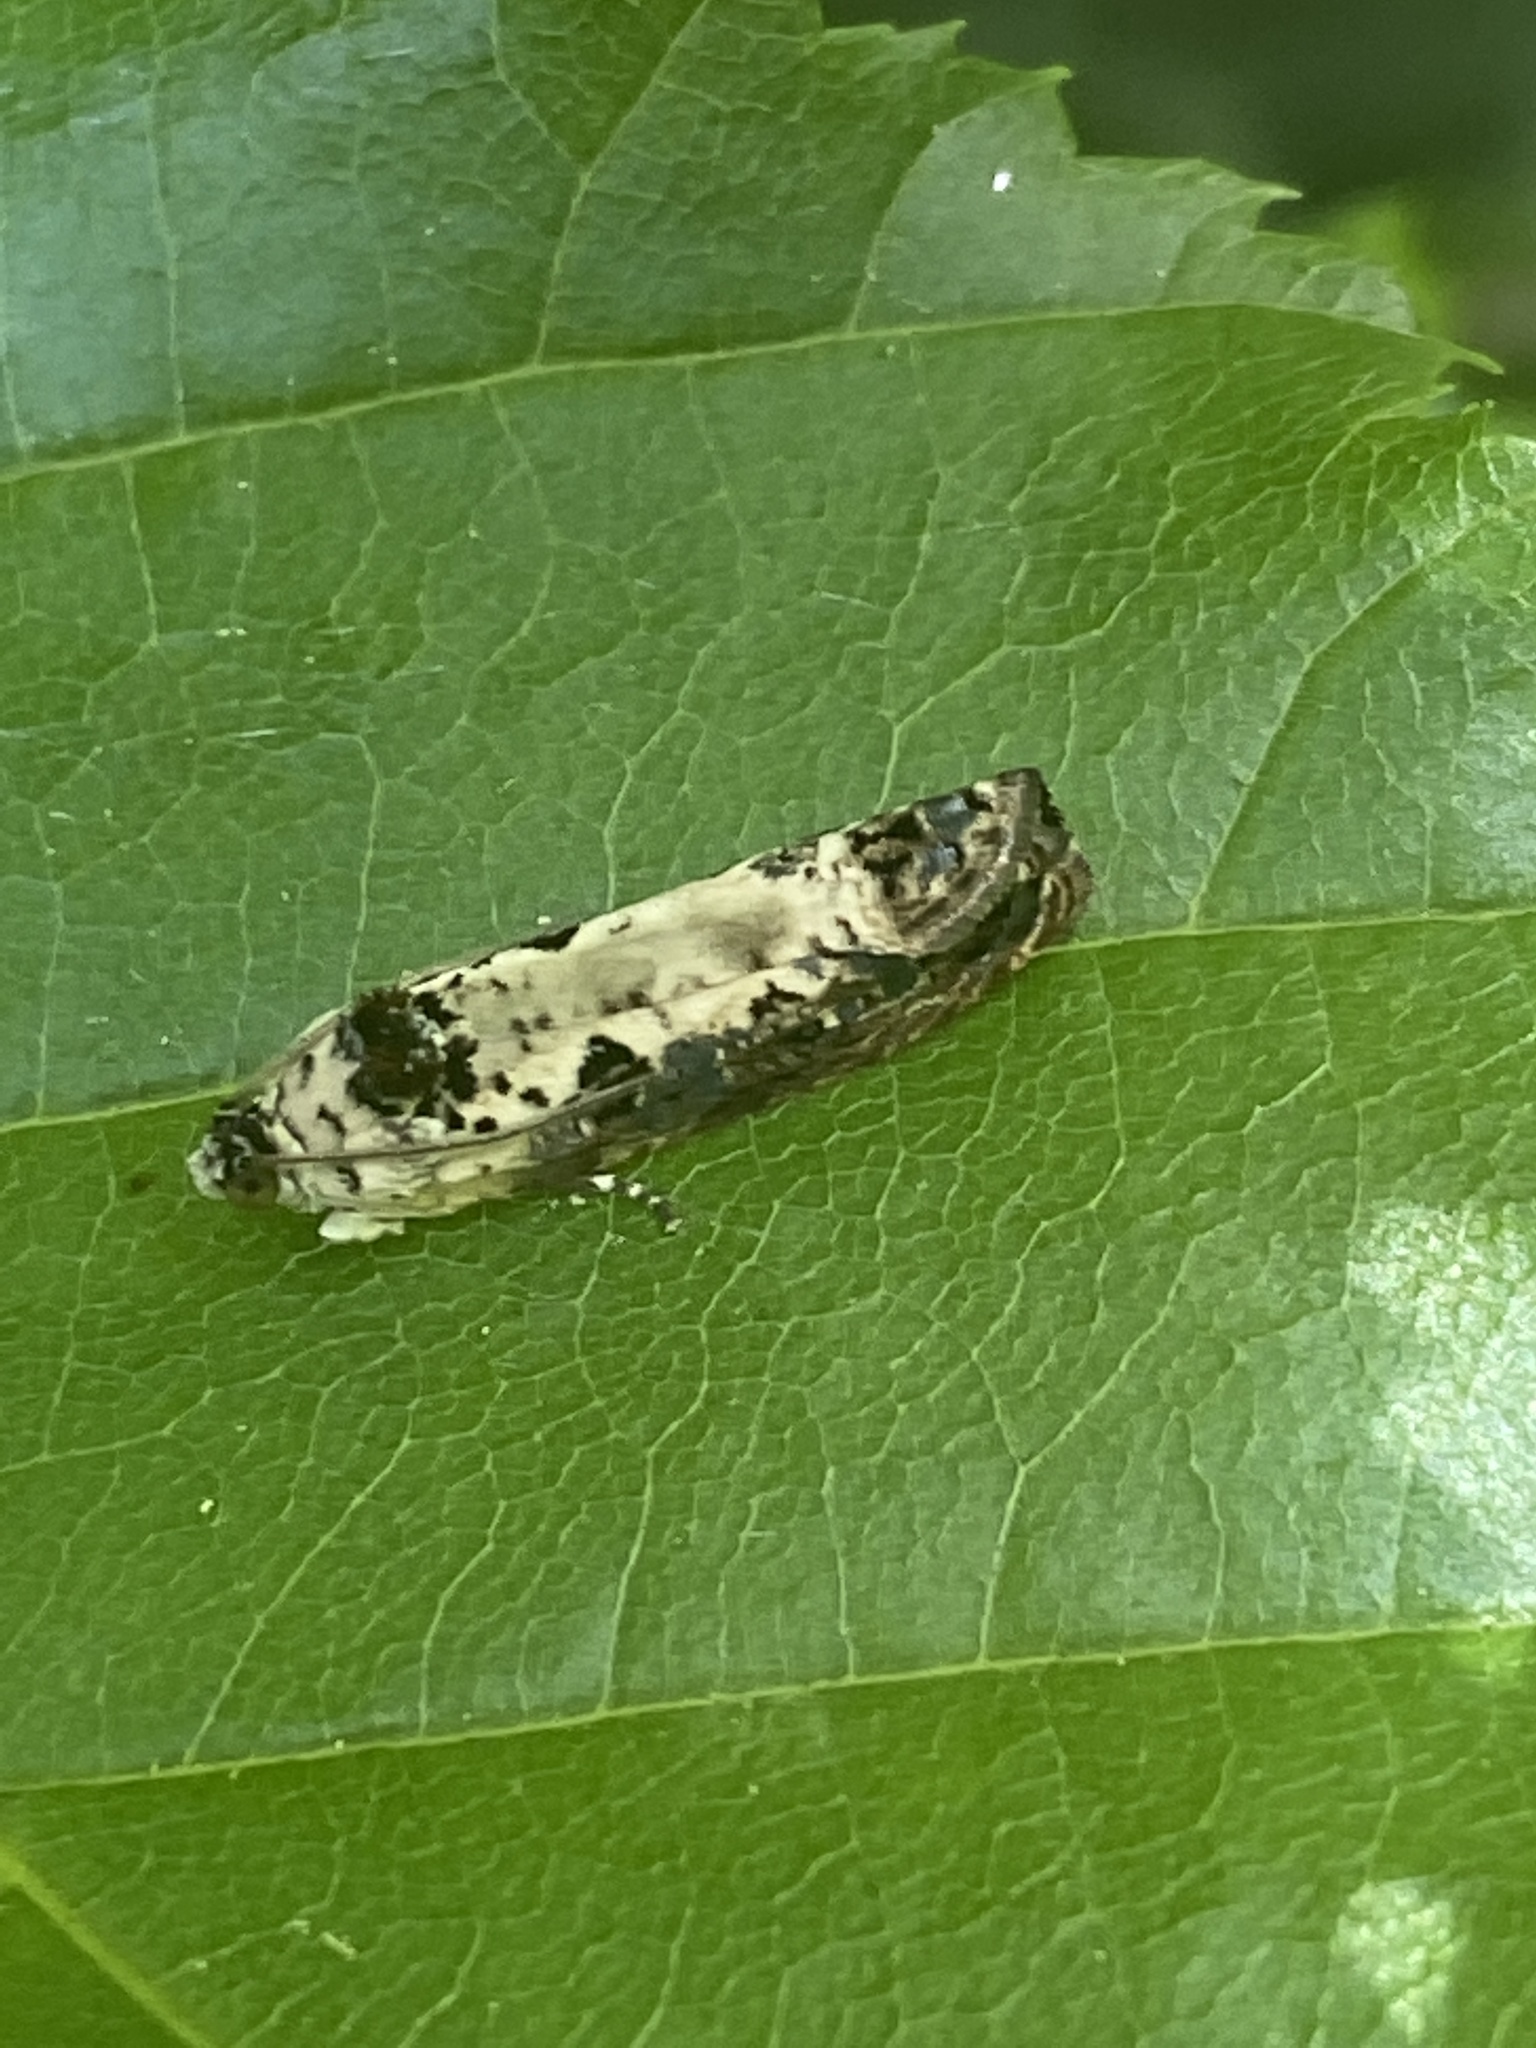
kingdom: Animalia
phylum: Arthropoda
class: Insecta
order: Lepidoptera
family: Tortricidae
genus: Hedya
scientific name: Hedya salicella
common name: Large tortricid moth
